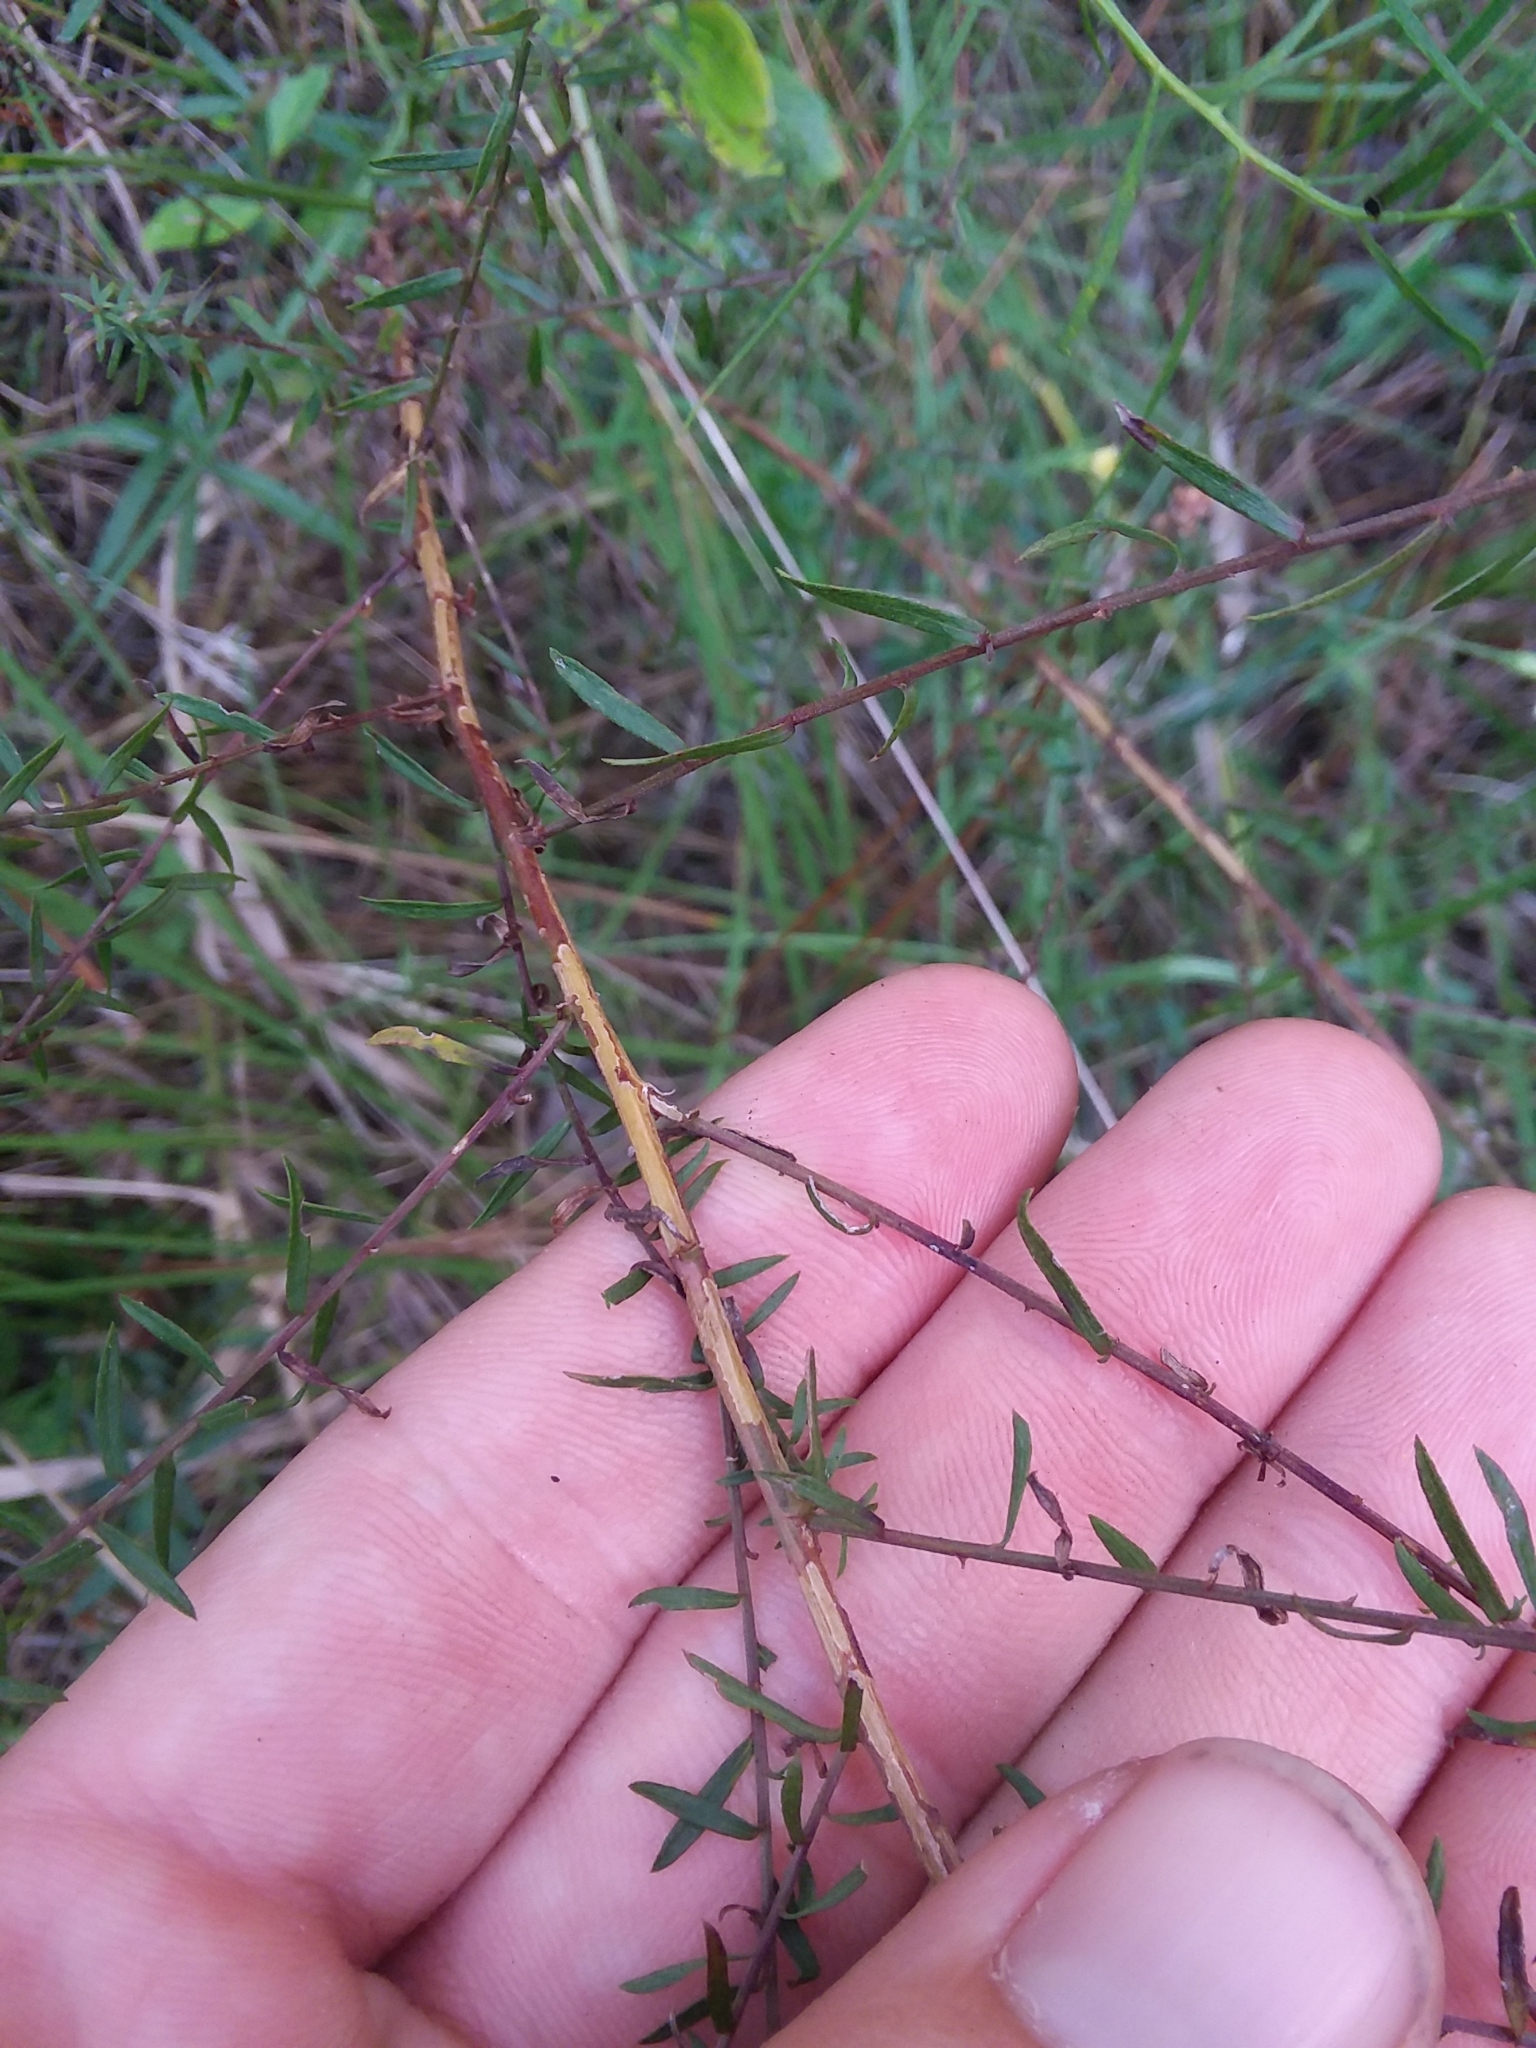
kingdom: Plantae
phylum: Tracheophyta
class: Magnoliopsida
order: Asterales
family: Asteraceae
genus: Symphyotrichum
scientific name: Symphyotrichum dumosum
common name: Bushy aster
